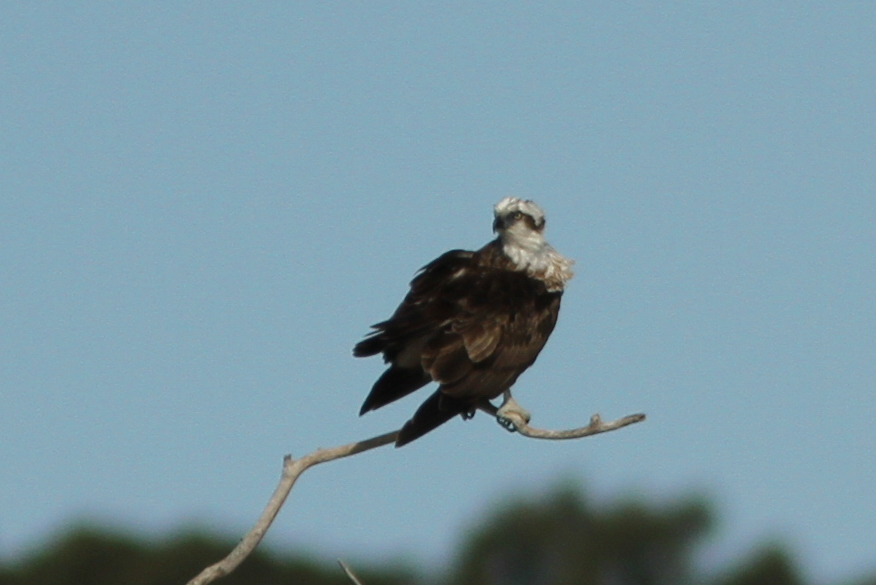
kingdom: Animalia
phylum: Chordata
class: Aves
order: Accipitriformes
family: Pandionidae
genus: Pandion
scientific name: Pandion haliaetus
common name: Osprey
